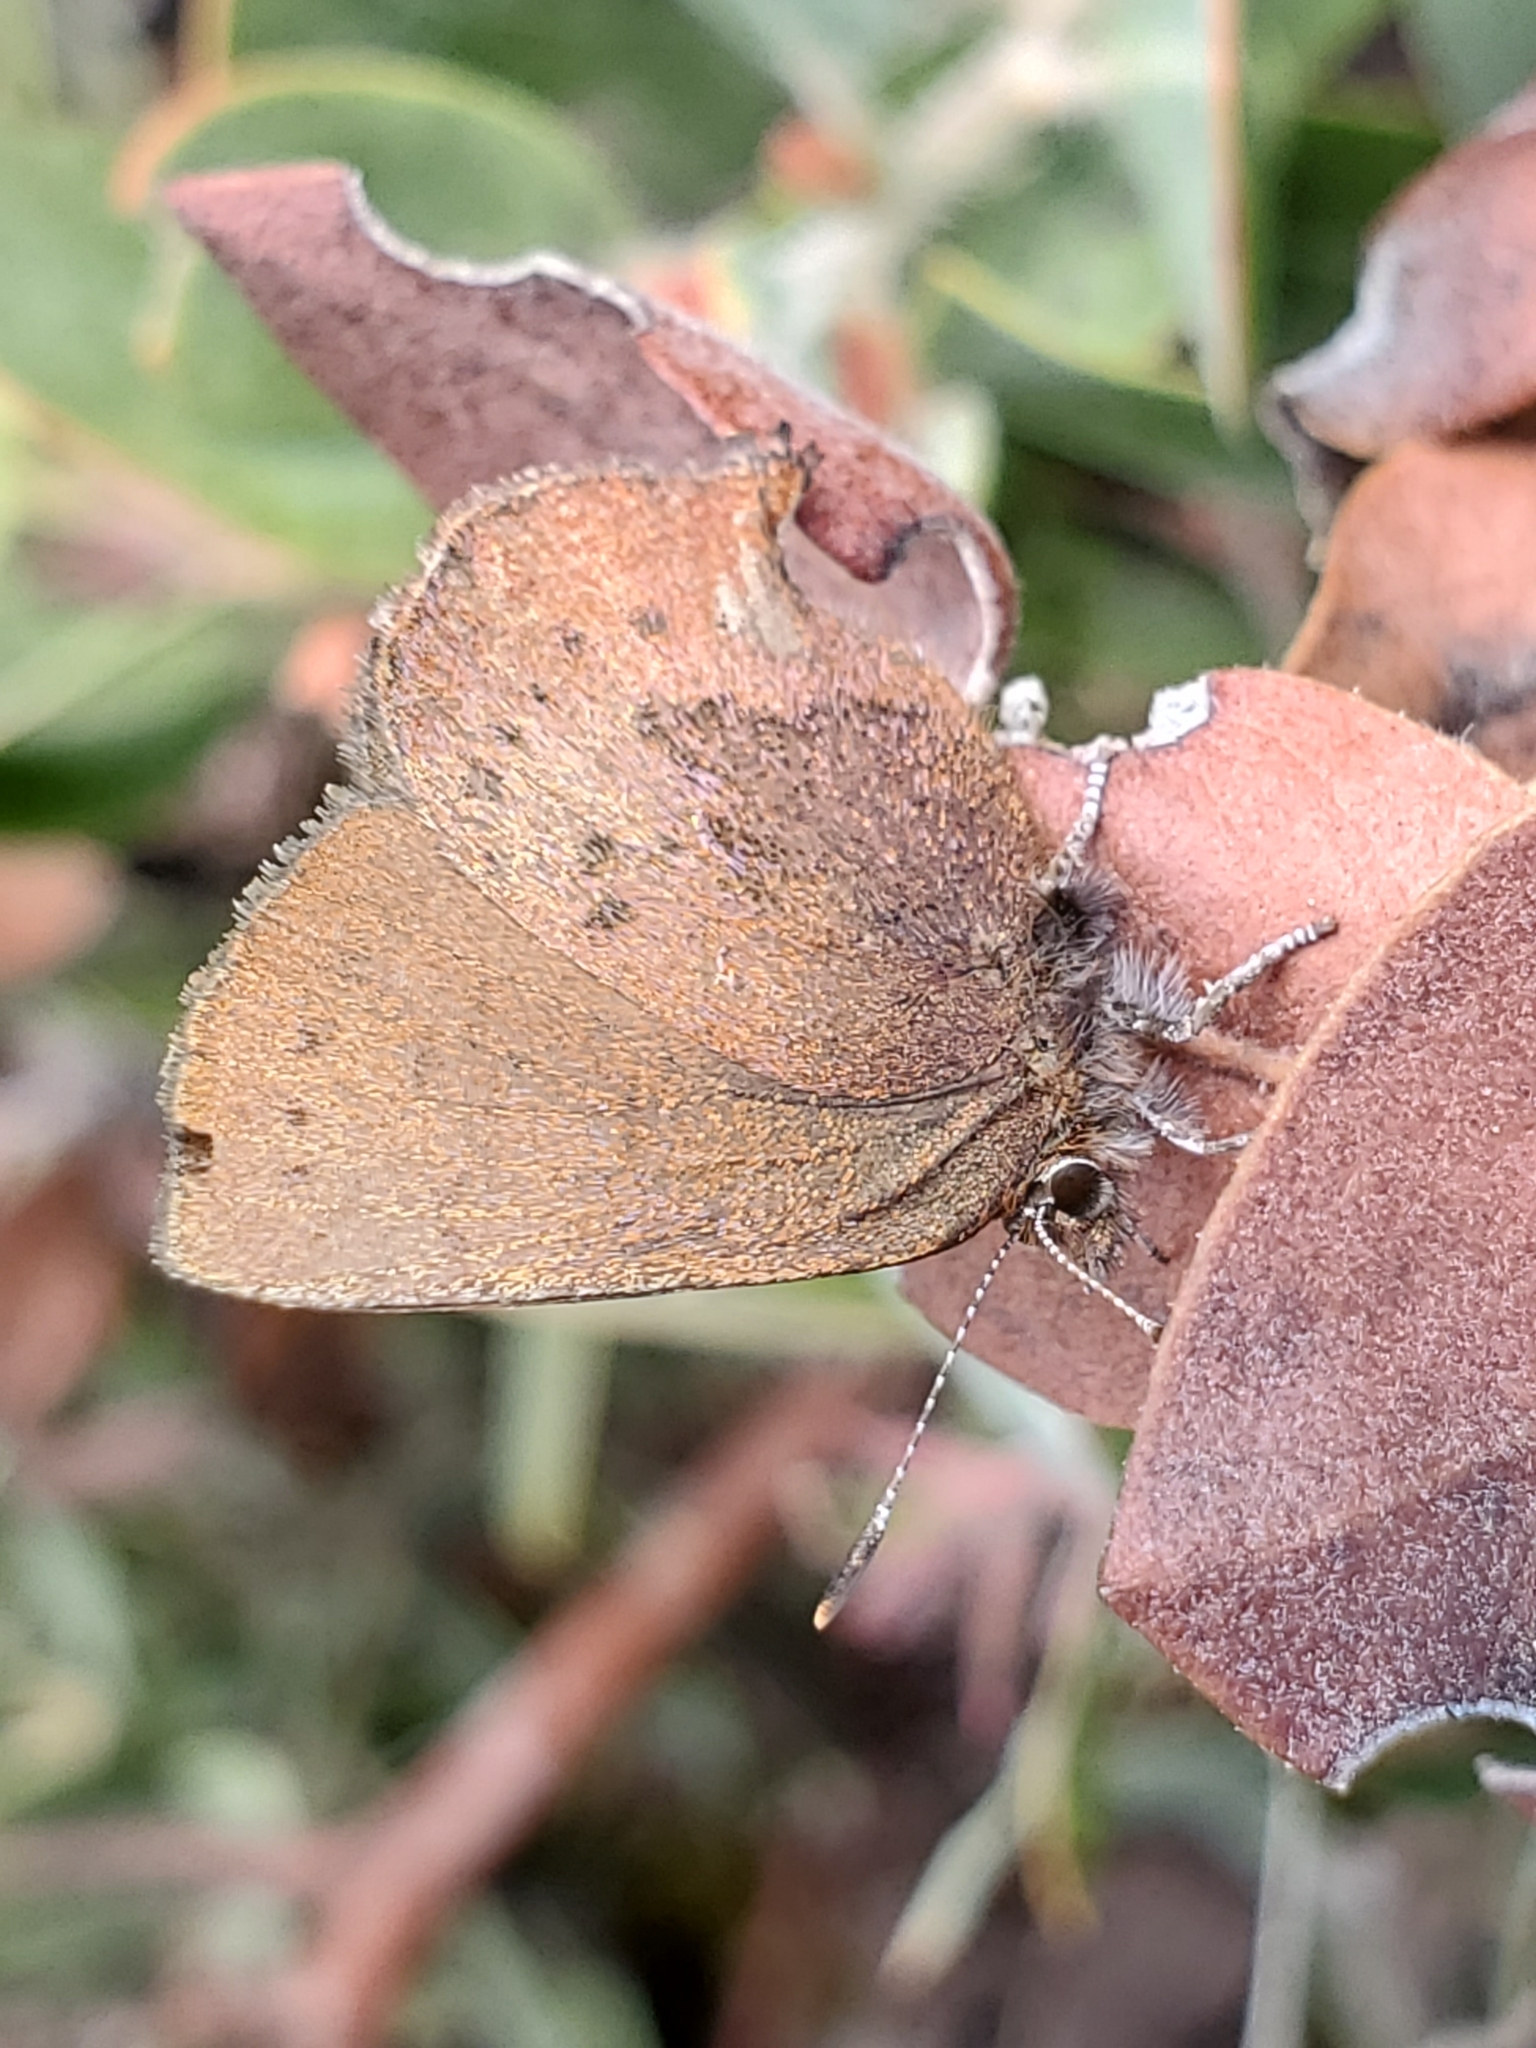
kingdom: Animalia
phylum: Arthropoda
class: Insecta
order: Lepidoptera
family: Lycaenidae
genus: Incisalia
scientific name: Incisalia irioides
